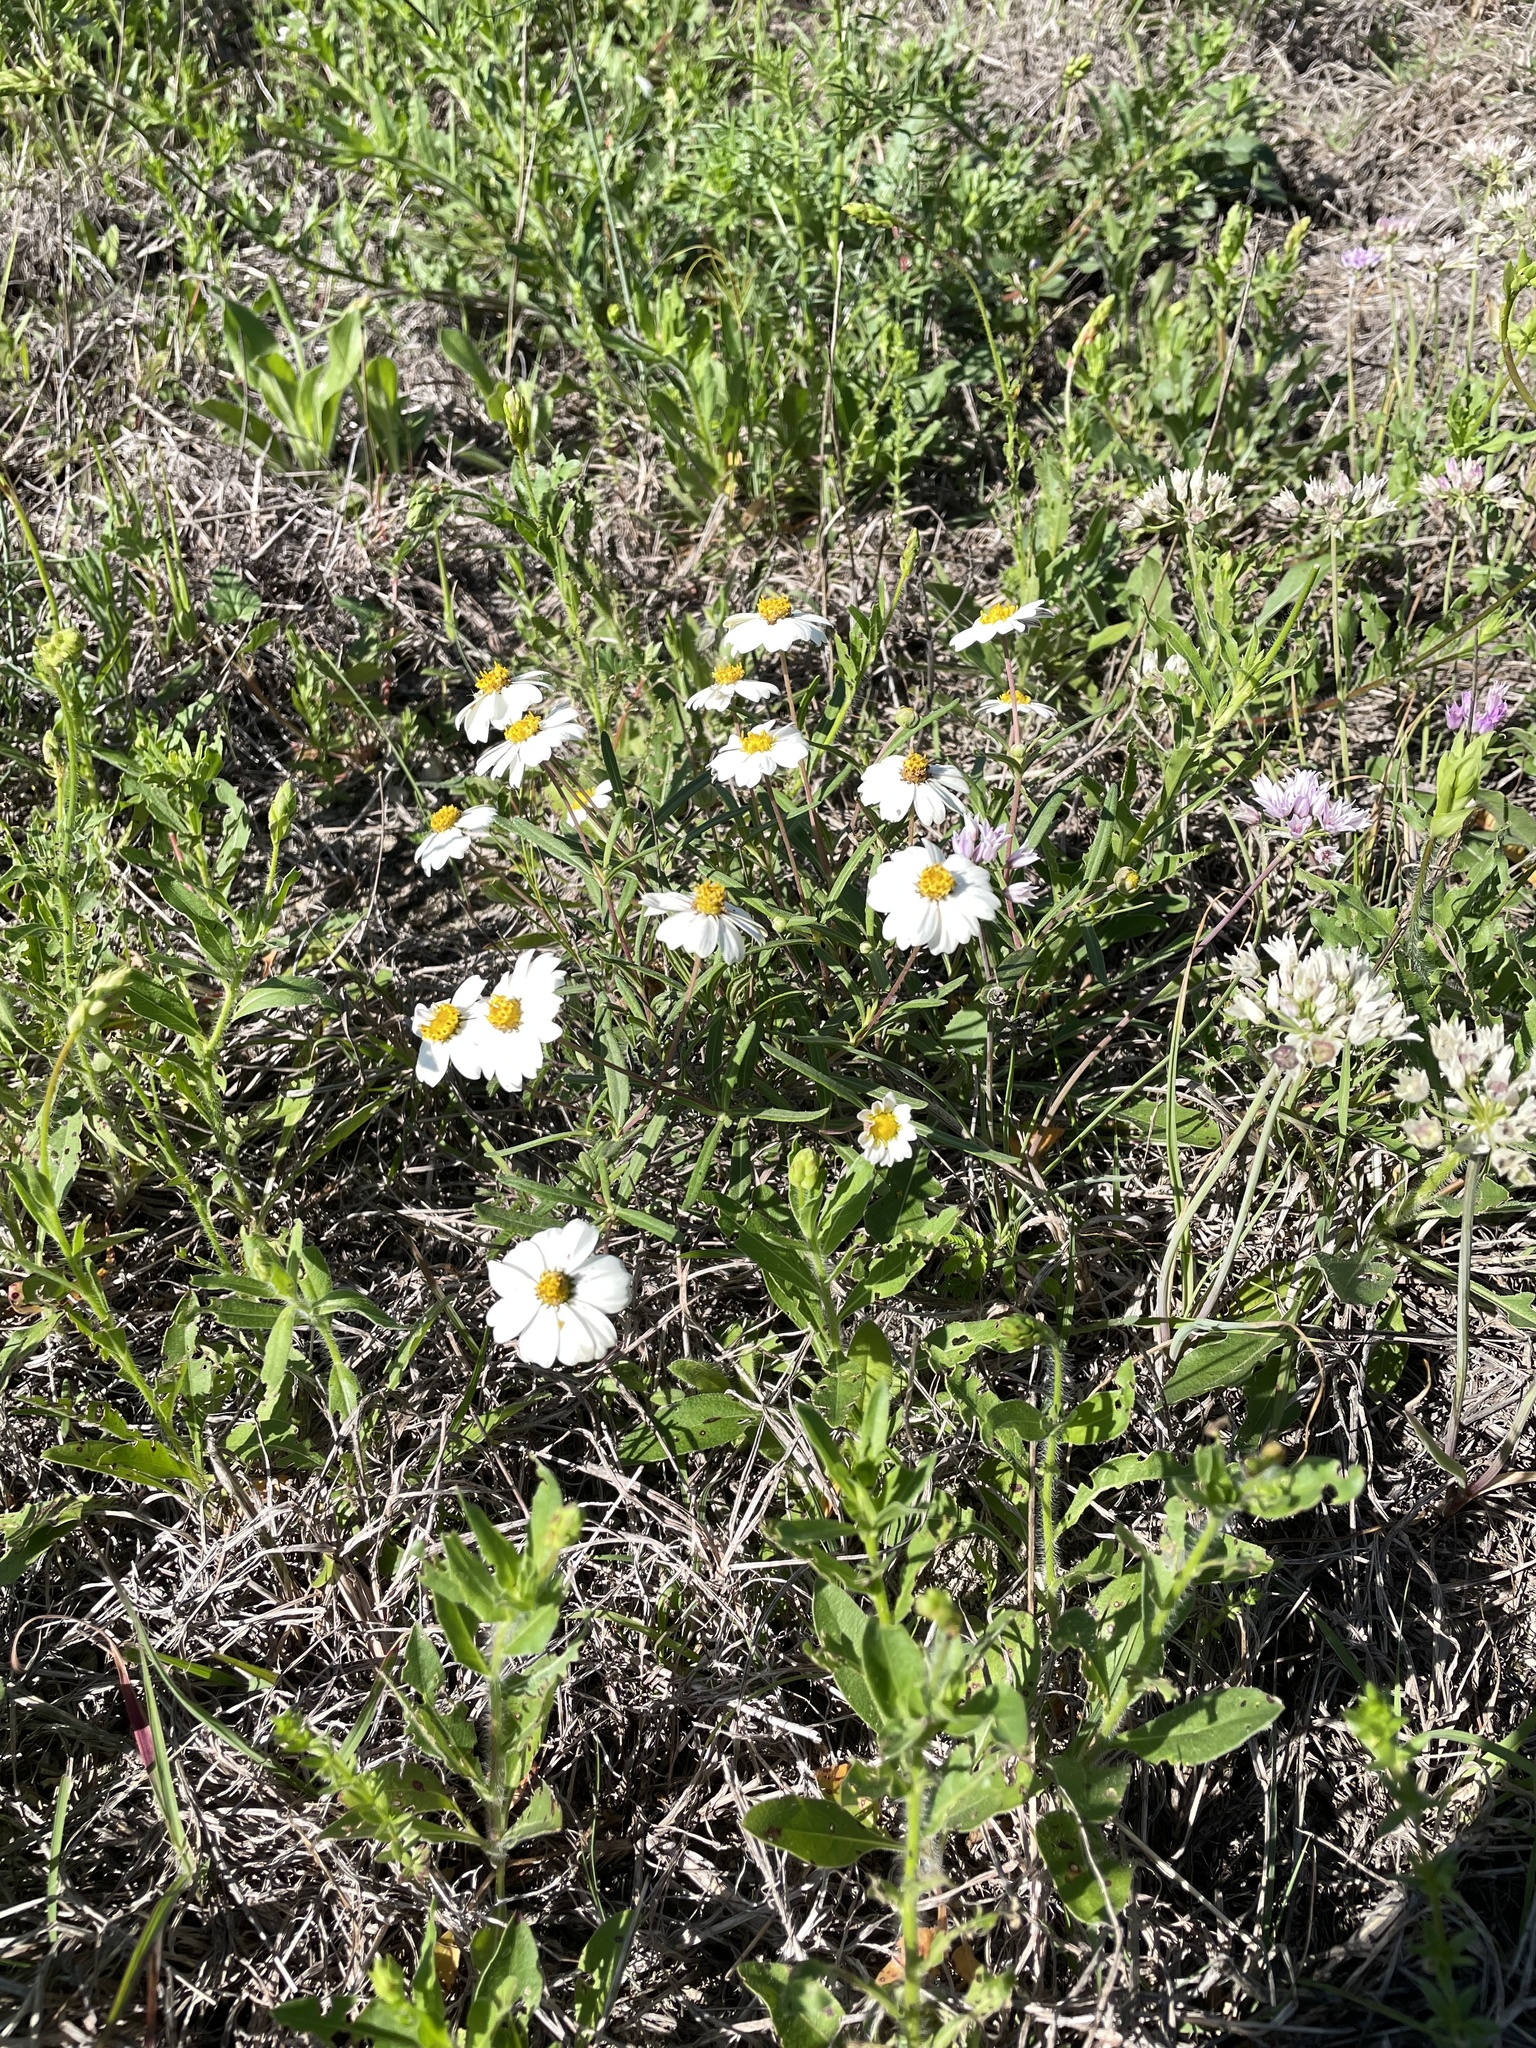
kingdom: Plantae
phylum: Tracheophyta
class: Magnoliopsida
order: Asterales
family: Asteraceae
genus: Melampodium
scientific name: Melampodium leucanthum
